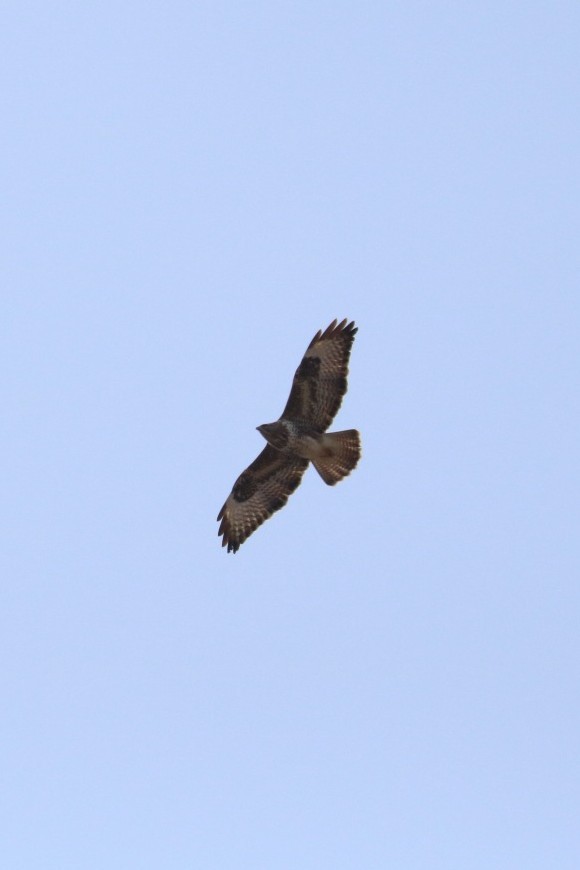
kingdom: Animalia
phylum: Chordata
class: Aves
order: Accipitriformes
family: Accipitridae
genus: Buteo
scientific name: Buteo buteo
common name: Common buzzard
